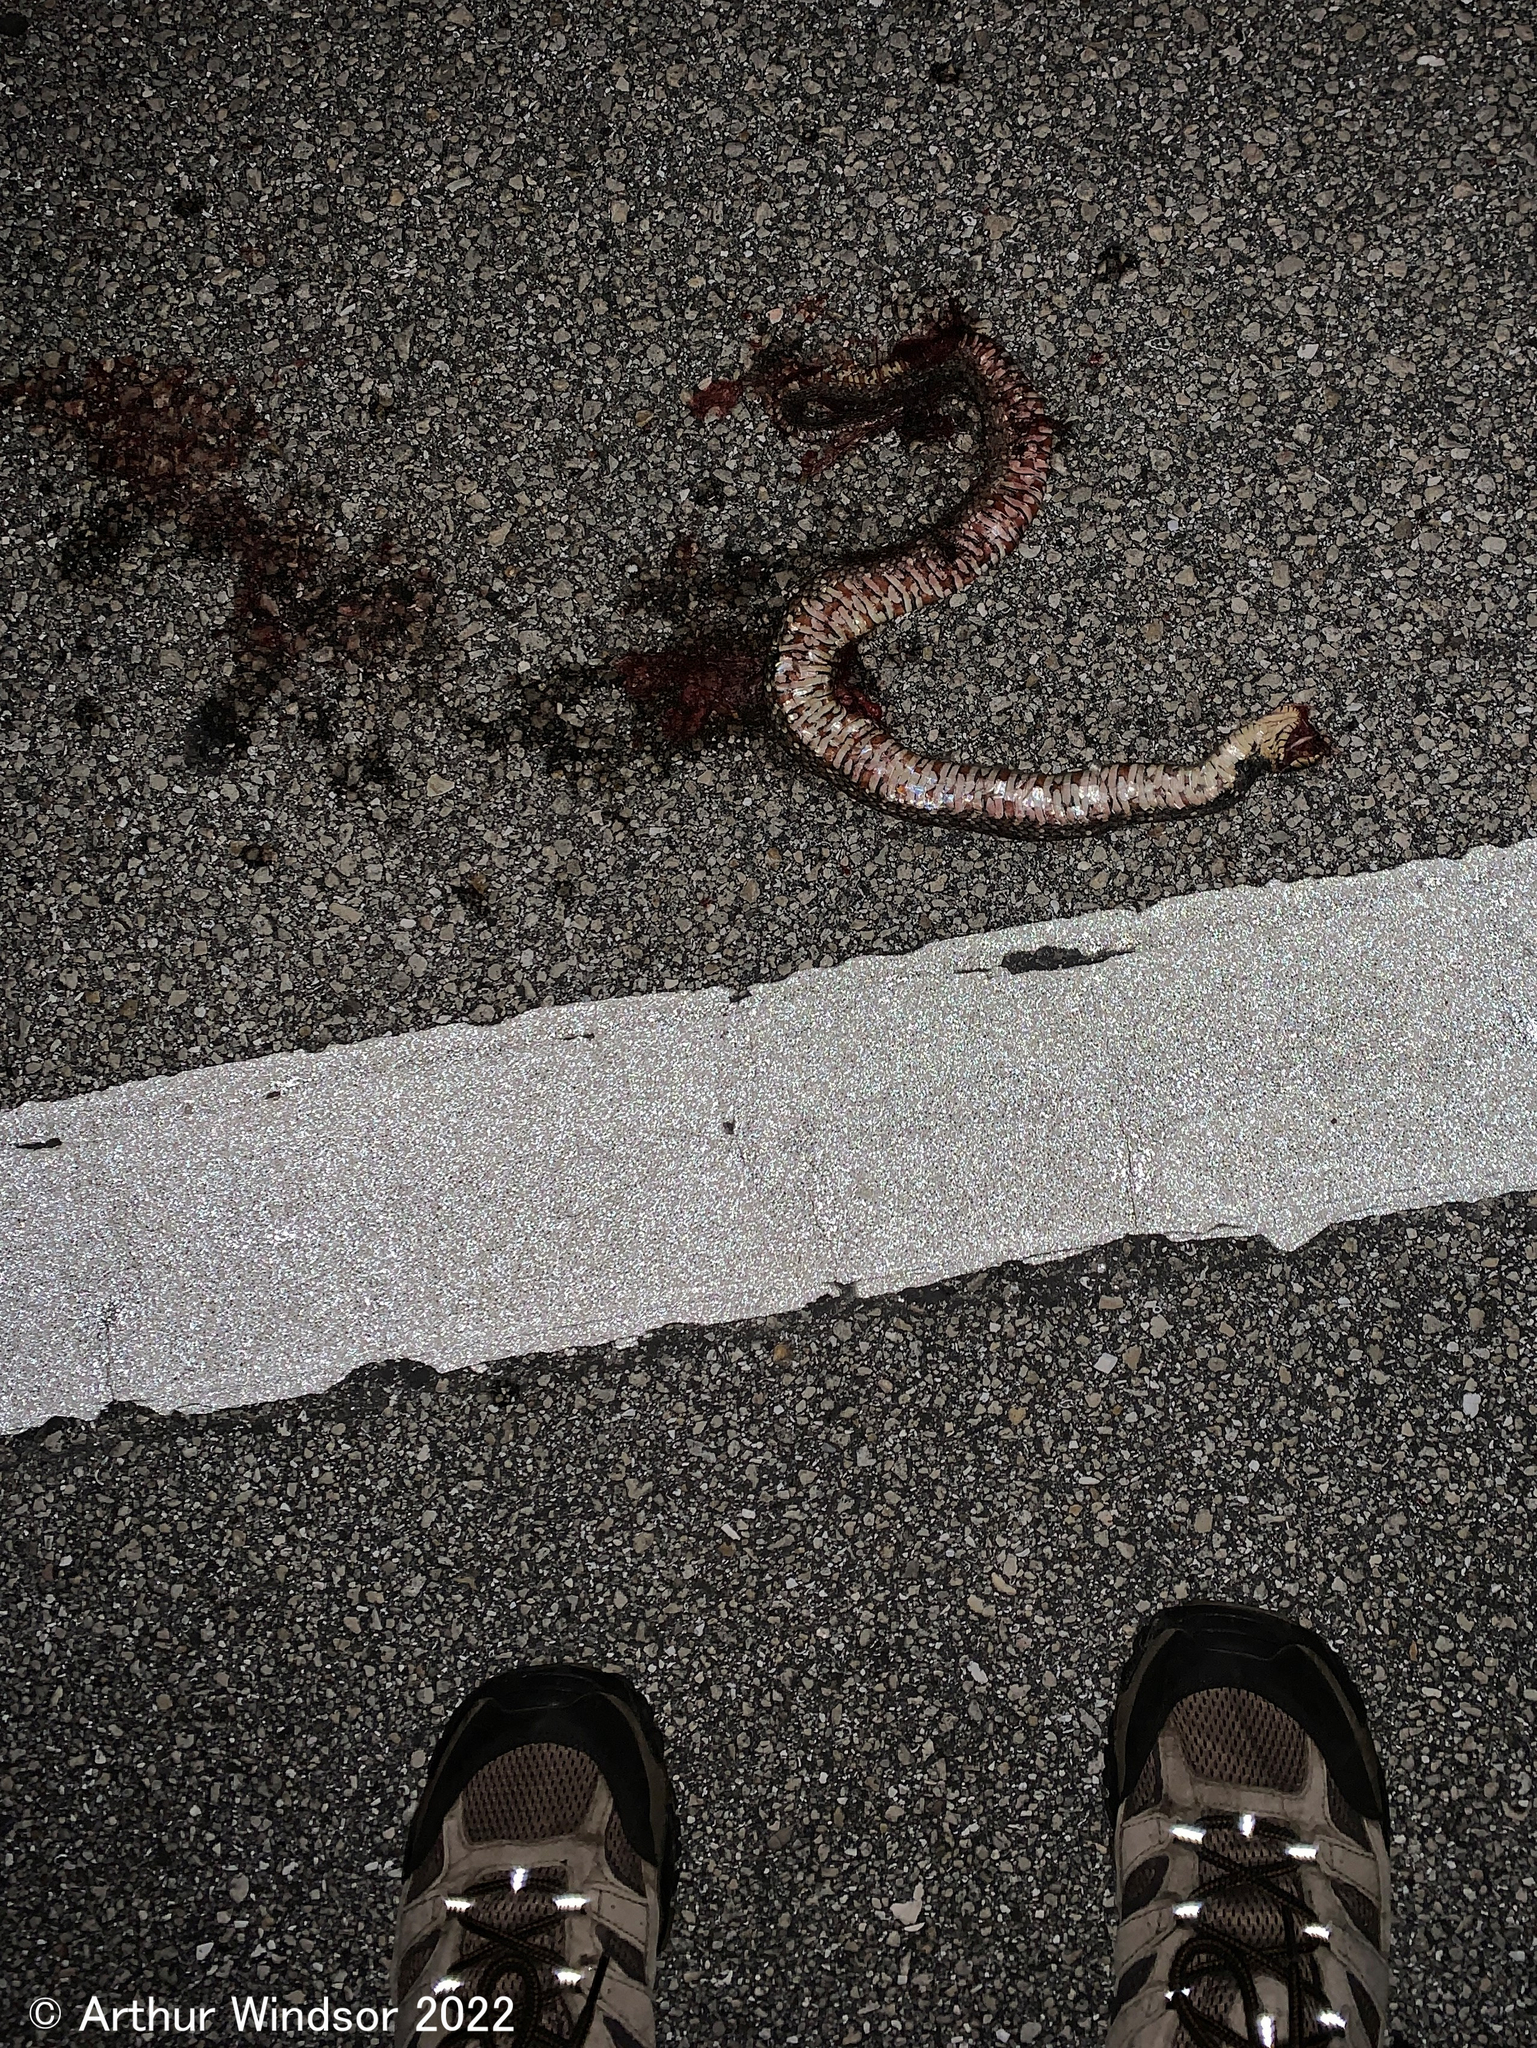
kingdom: Animalia
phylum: Chordata
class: Squamata
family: Colubridae
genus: Nerodia
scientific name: Nerodia fasciata
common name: Southern water snake
